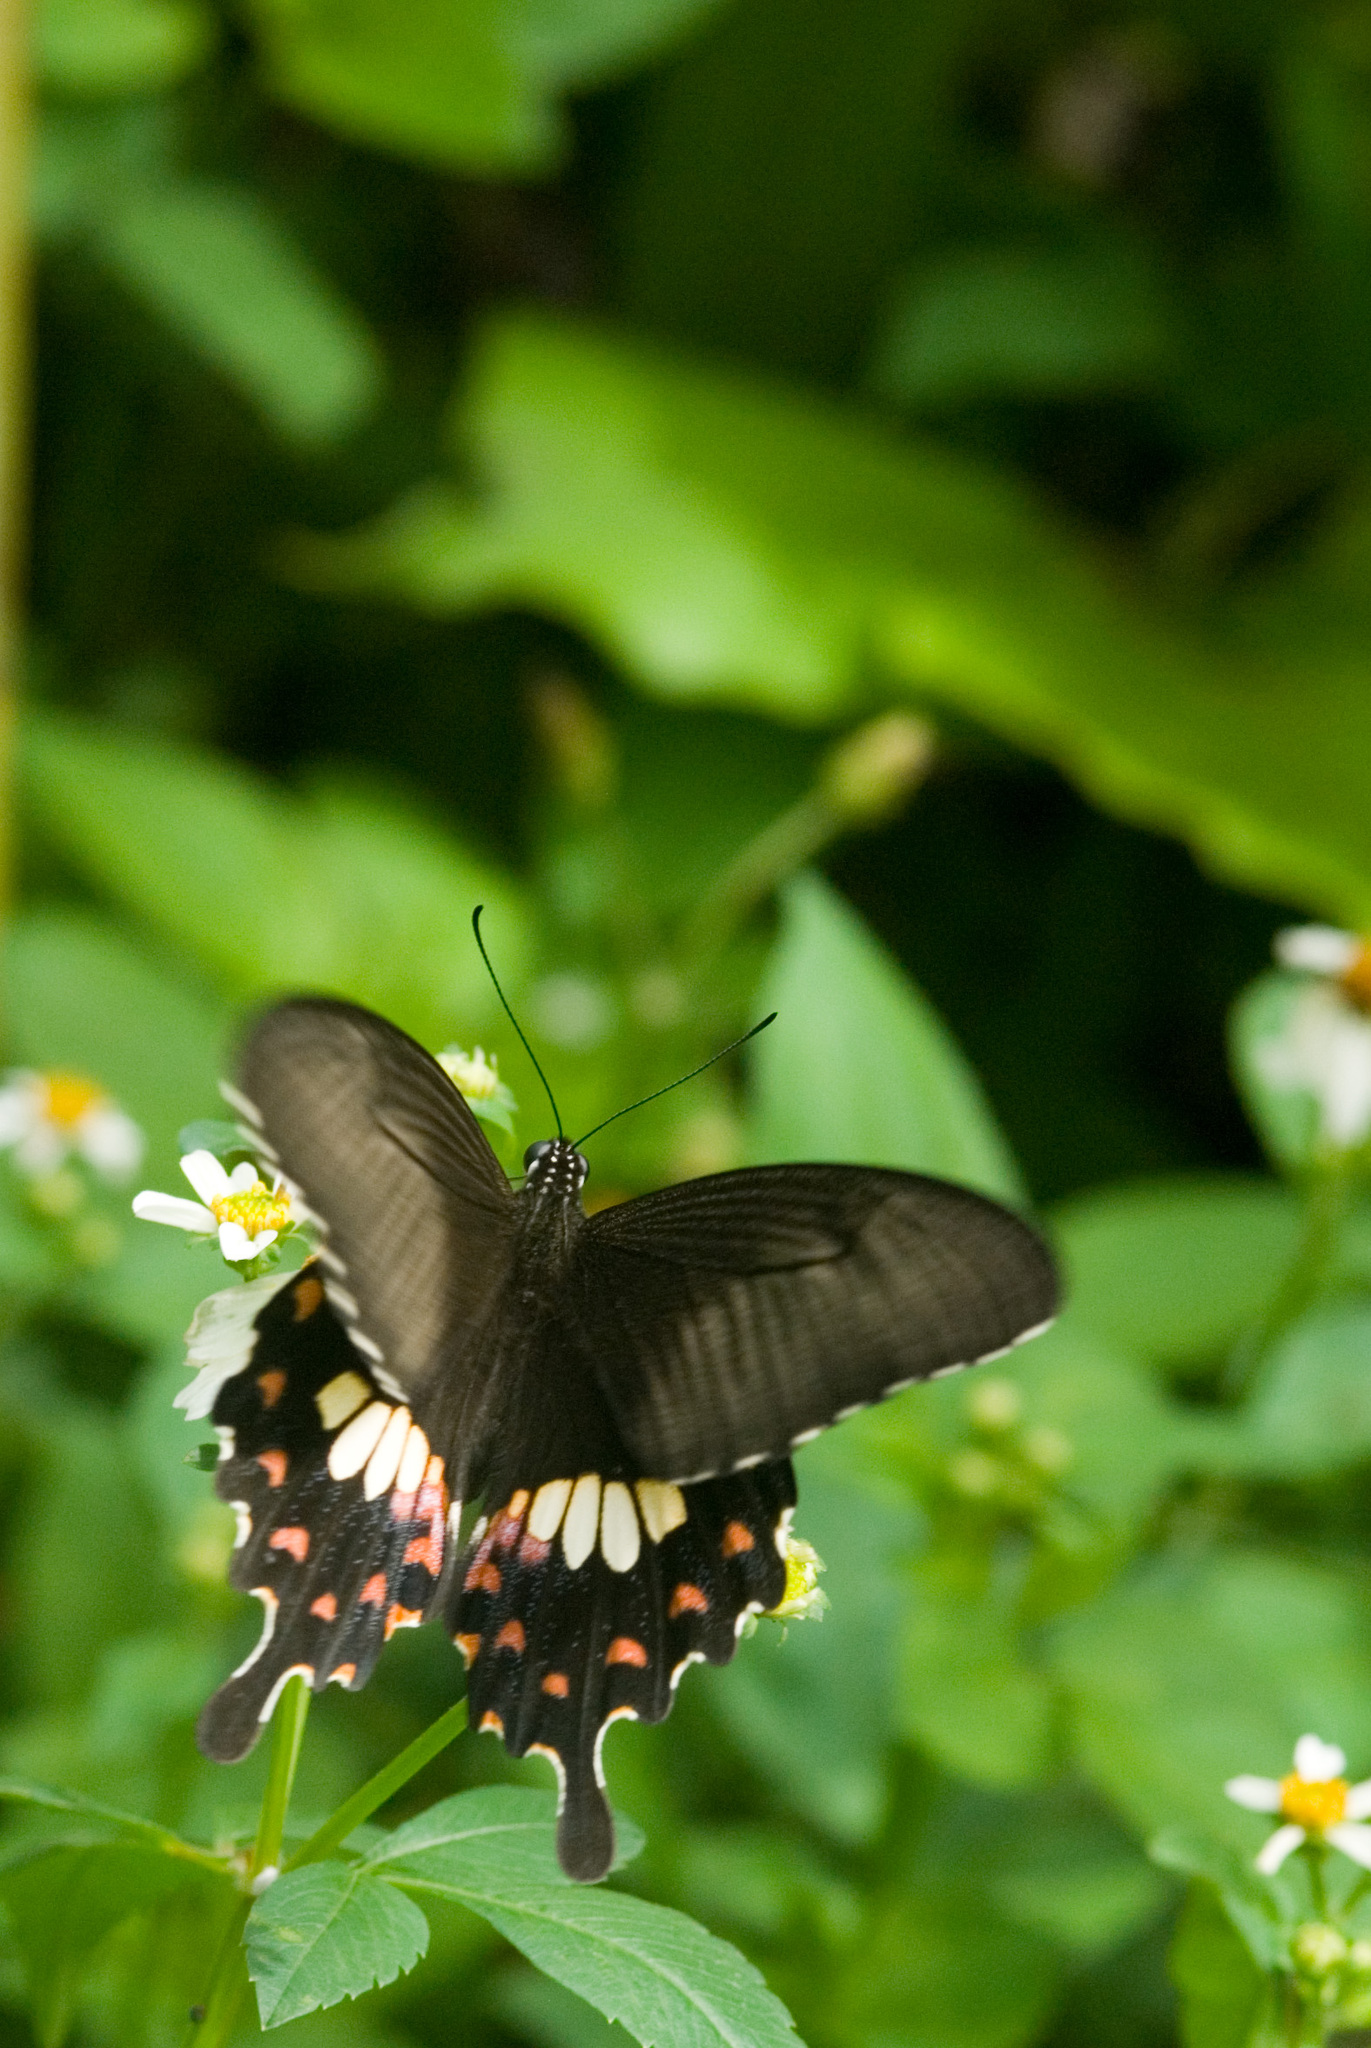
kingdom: Animalia
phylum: Arthropoda
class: Insecta
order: Lepidoptera
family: Papilionidae
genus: Papilio
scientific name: Papilio polytes
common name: Common mormon
